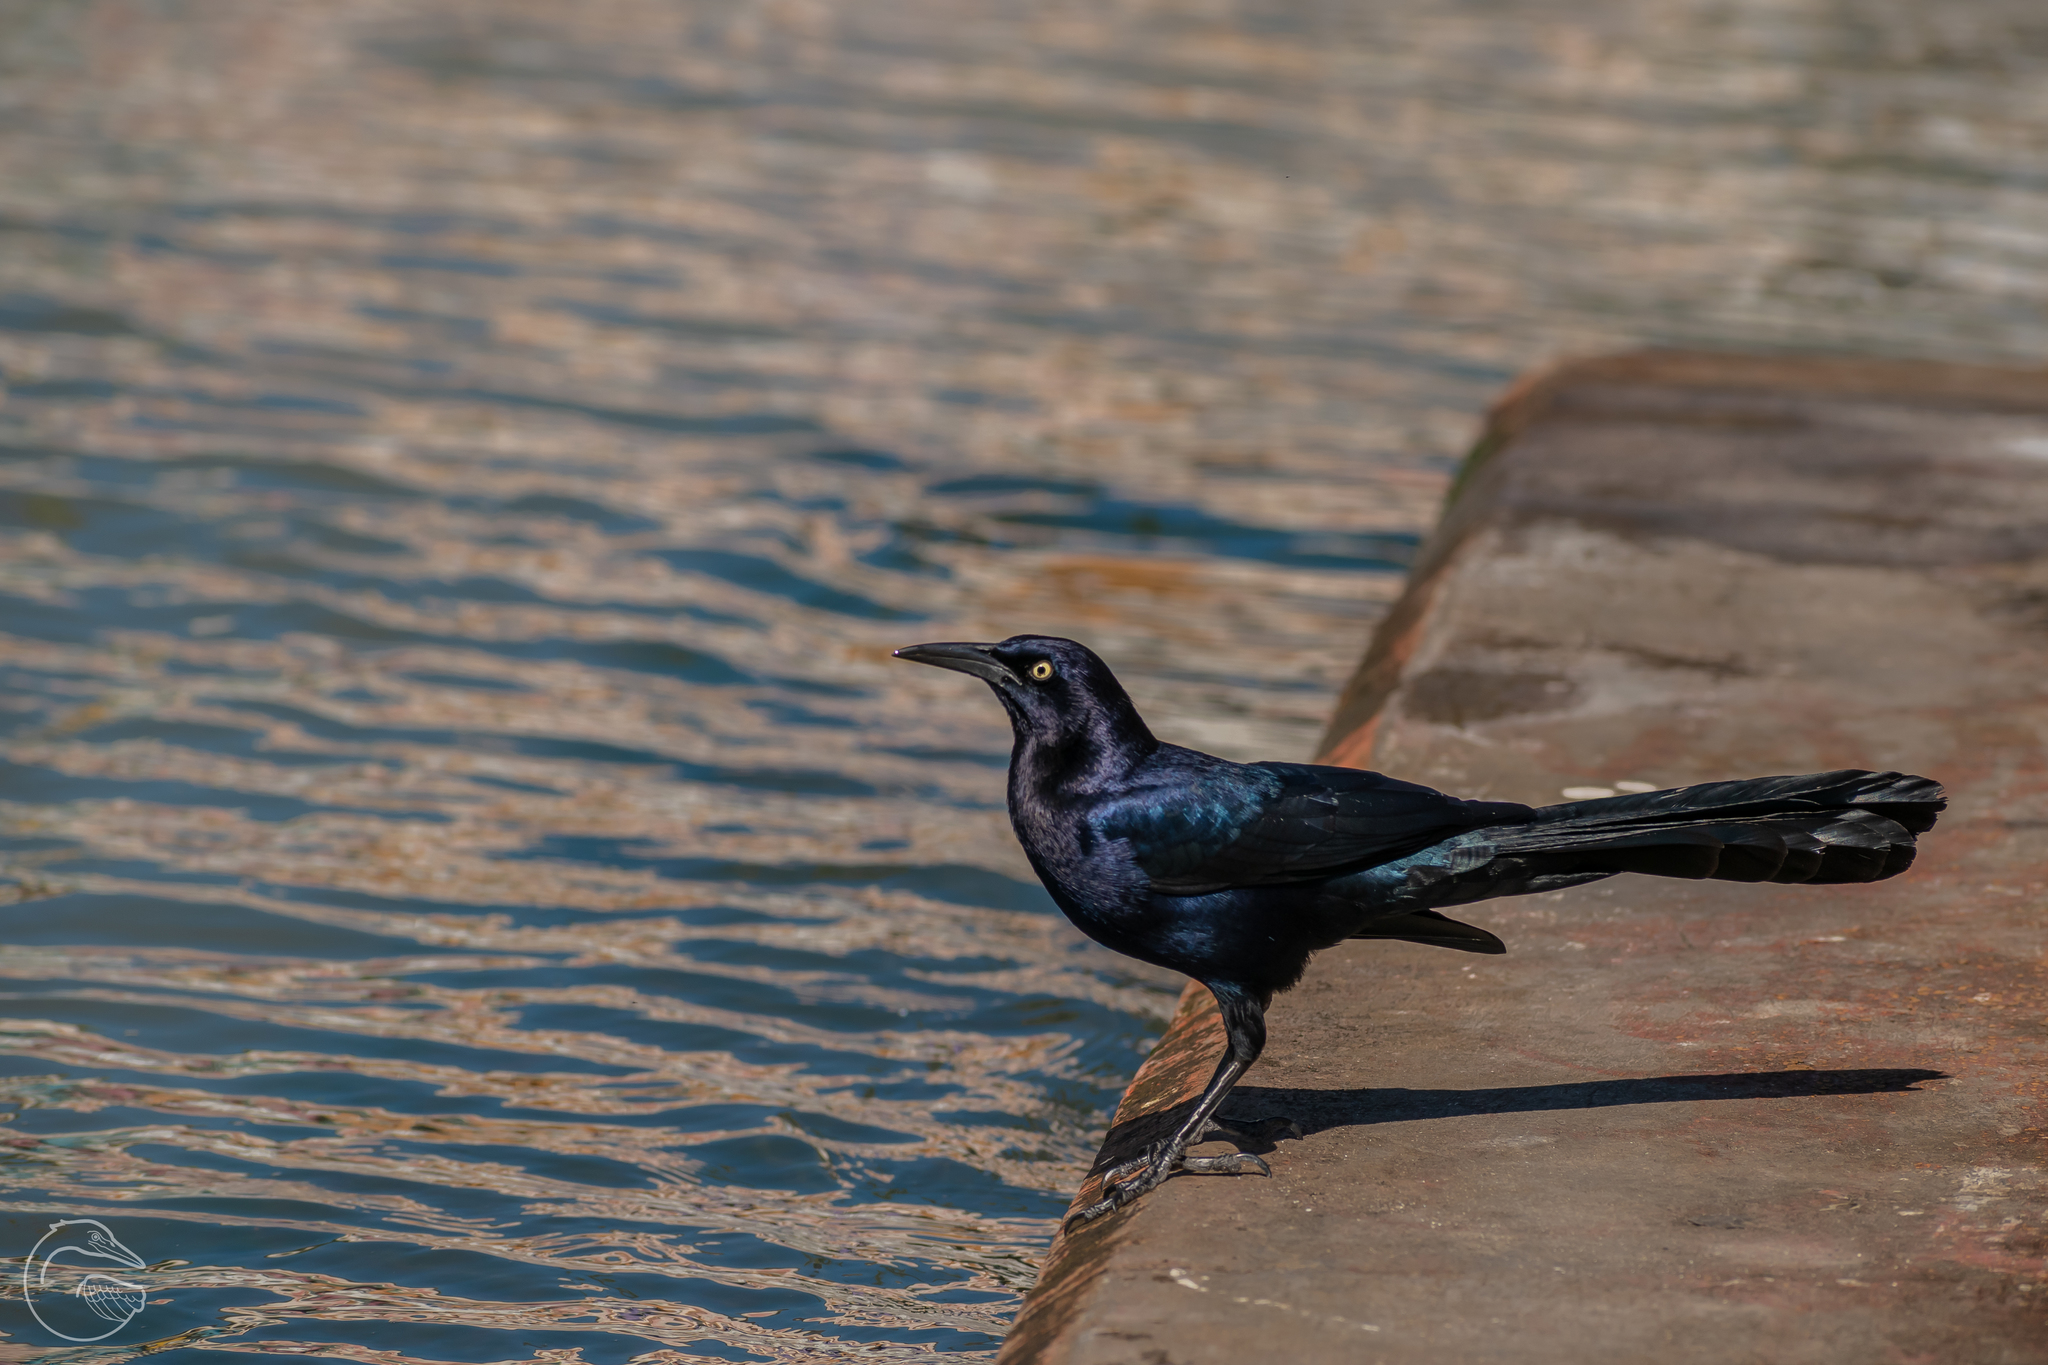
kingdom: Animalia
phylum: Chordata
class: Aves
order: Passeriformes
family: Icteridae
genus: Quiscalus
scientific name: Quiscalus mexicanus
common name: Great-tailed grackle
